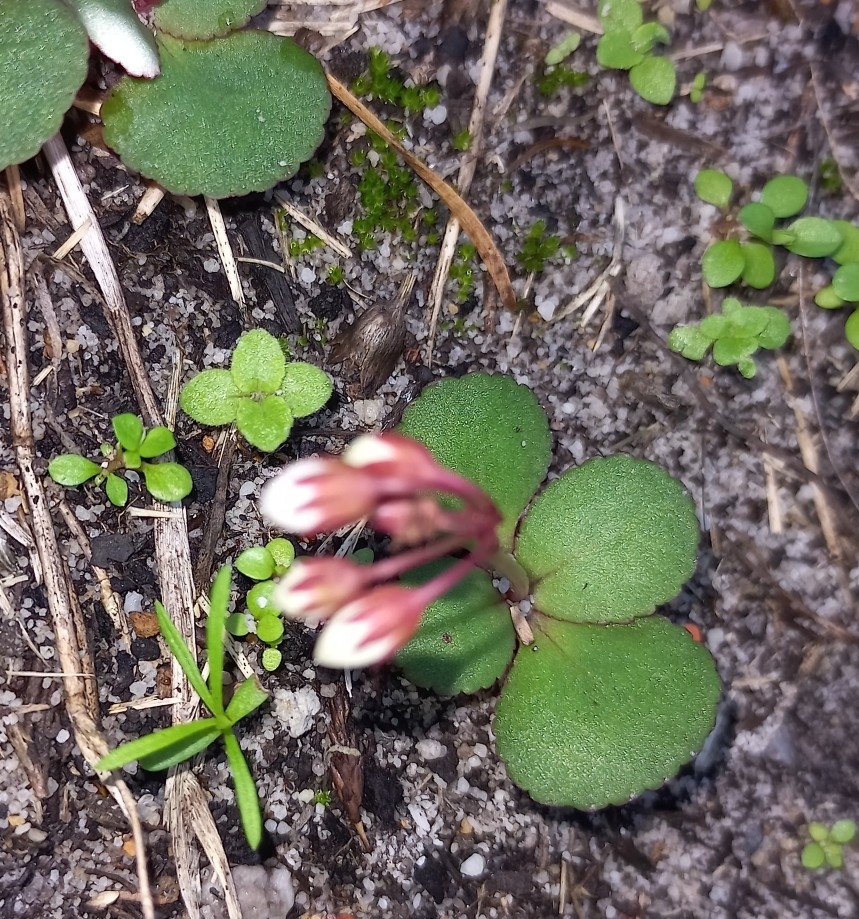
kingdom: Plantae
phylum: Tracheophyta
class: Magnoliopsida
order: Saxifragales
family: Crassulaceae
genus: Crassula
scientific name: Crassula capensis
